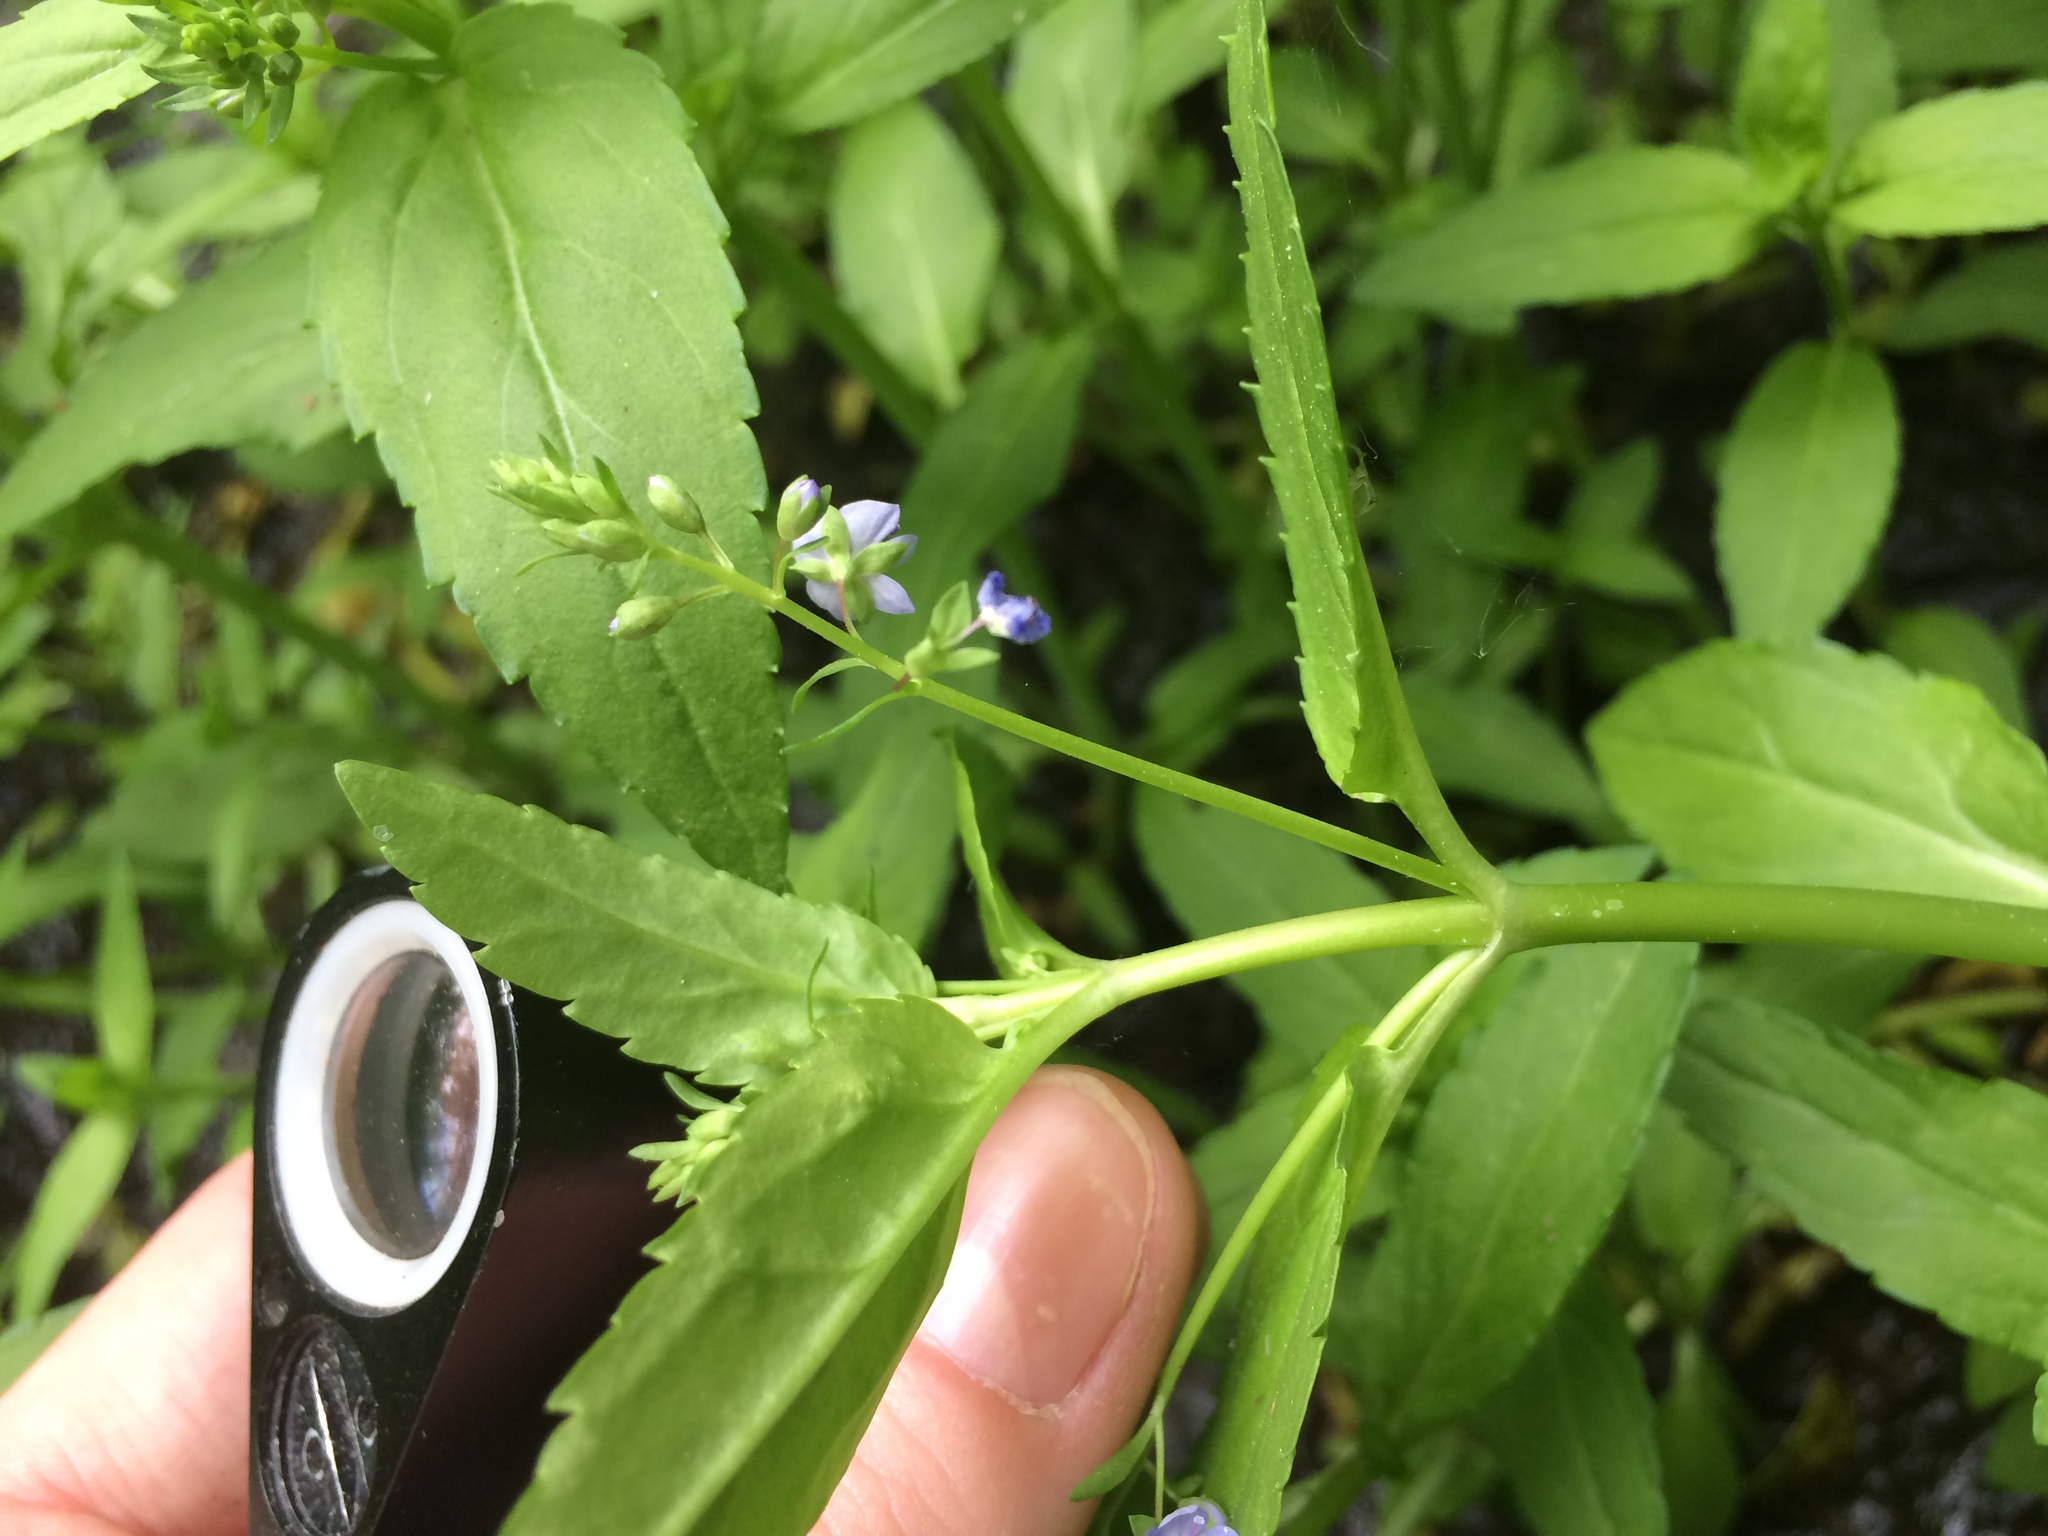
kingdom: Plantae
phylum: Tracheophyta
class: Magnoliopsida
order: Lamiales
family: Plantaginaceae
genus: Veronica
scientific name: Veronica americana
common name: American brooklime
